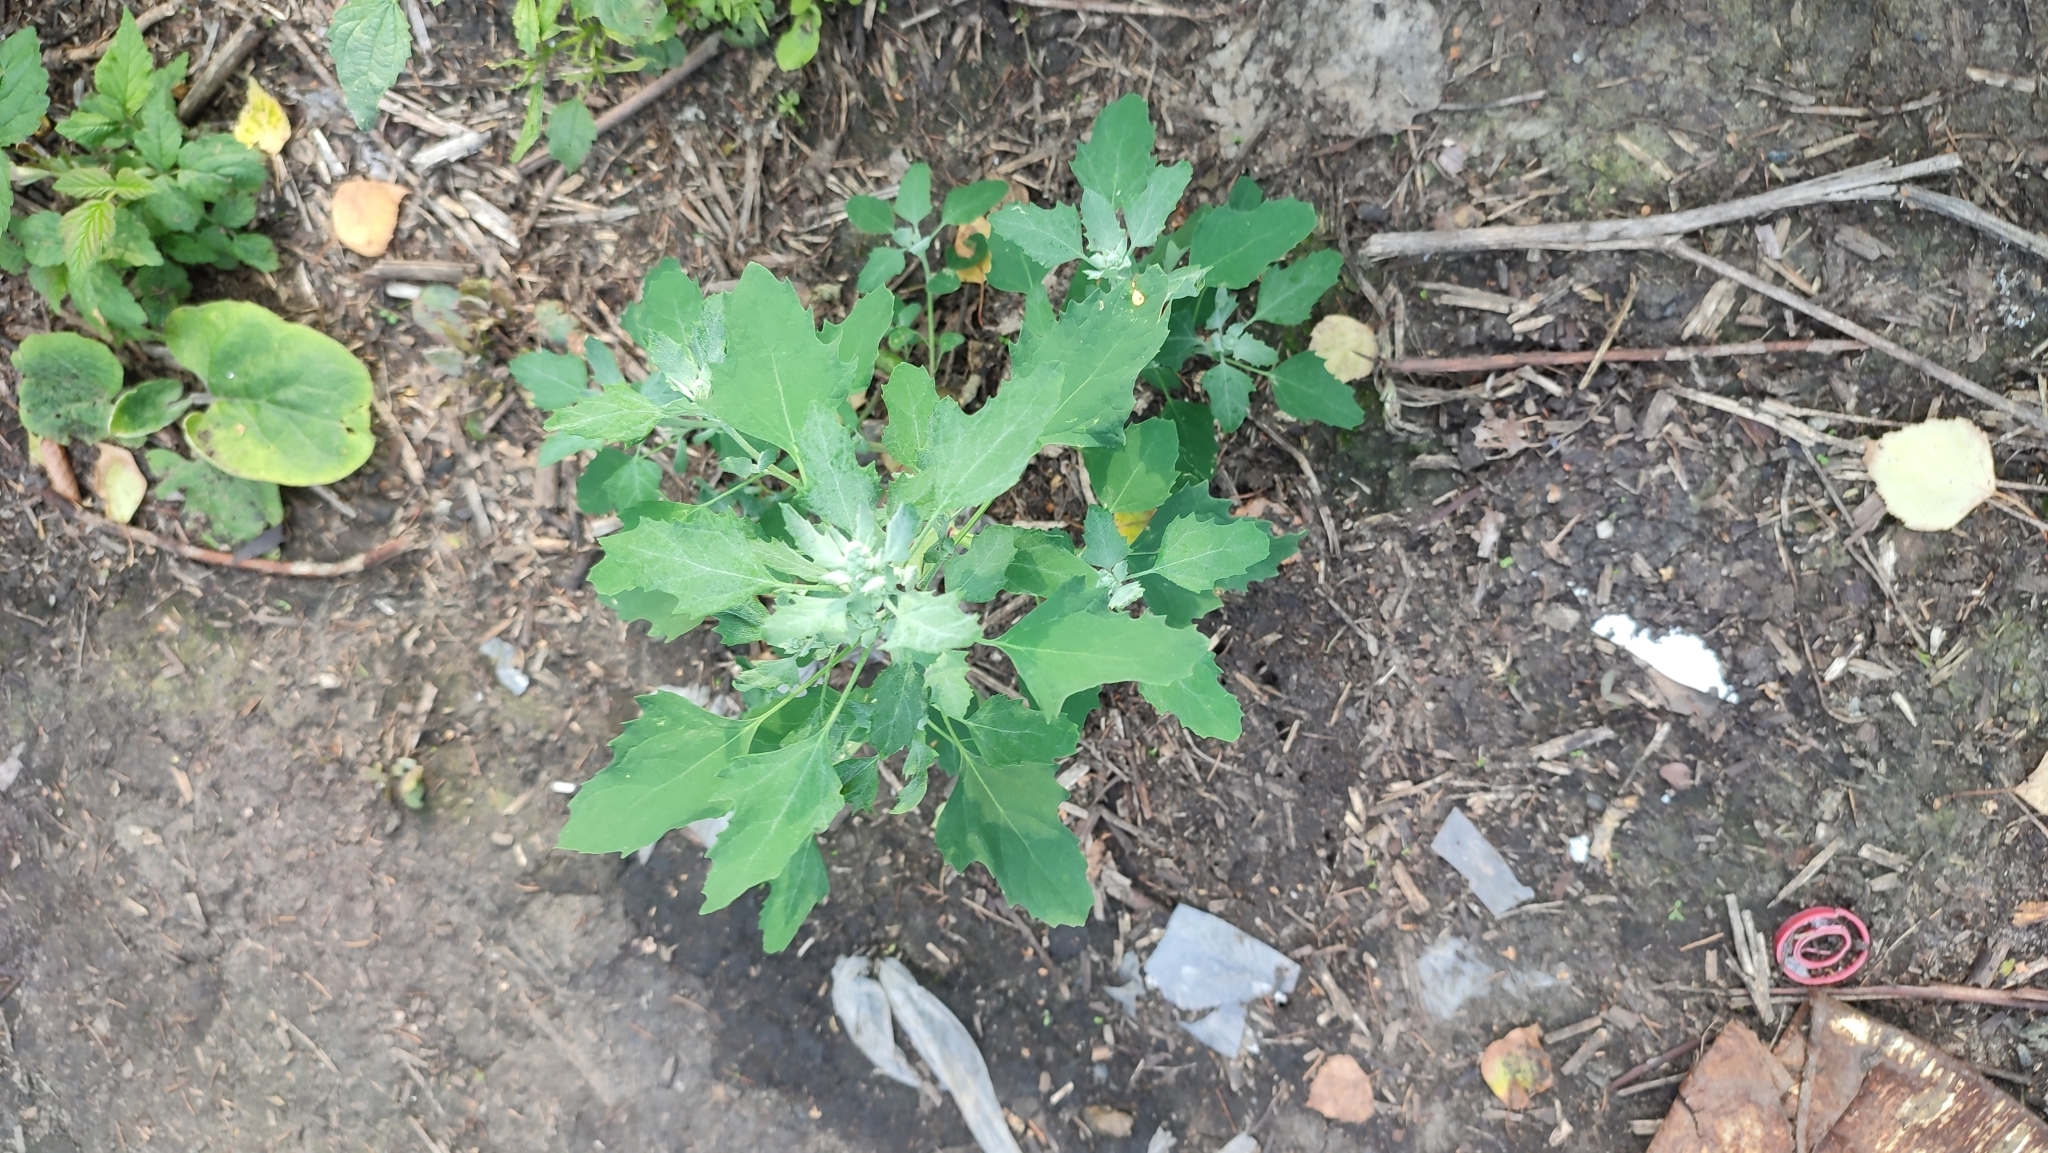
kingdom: Plantae
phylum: Tracheophyta
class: Magnoliopsida
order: Caryophyllales
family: Amaranthaceae
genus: Chenopodium
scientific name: Chenopodium album
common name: Fat-hen
